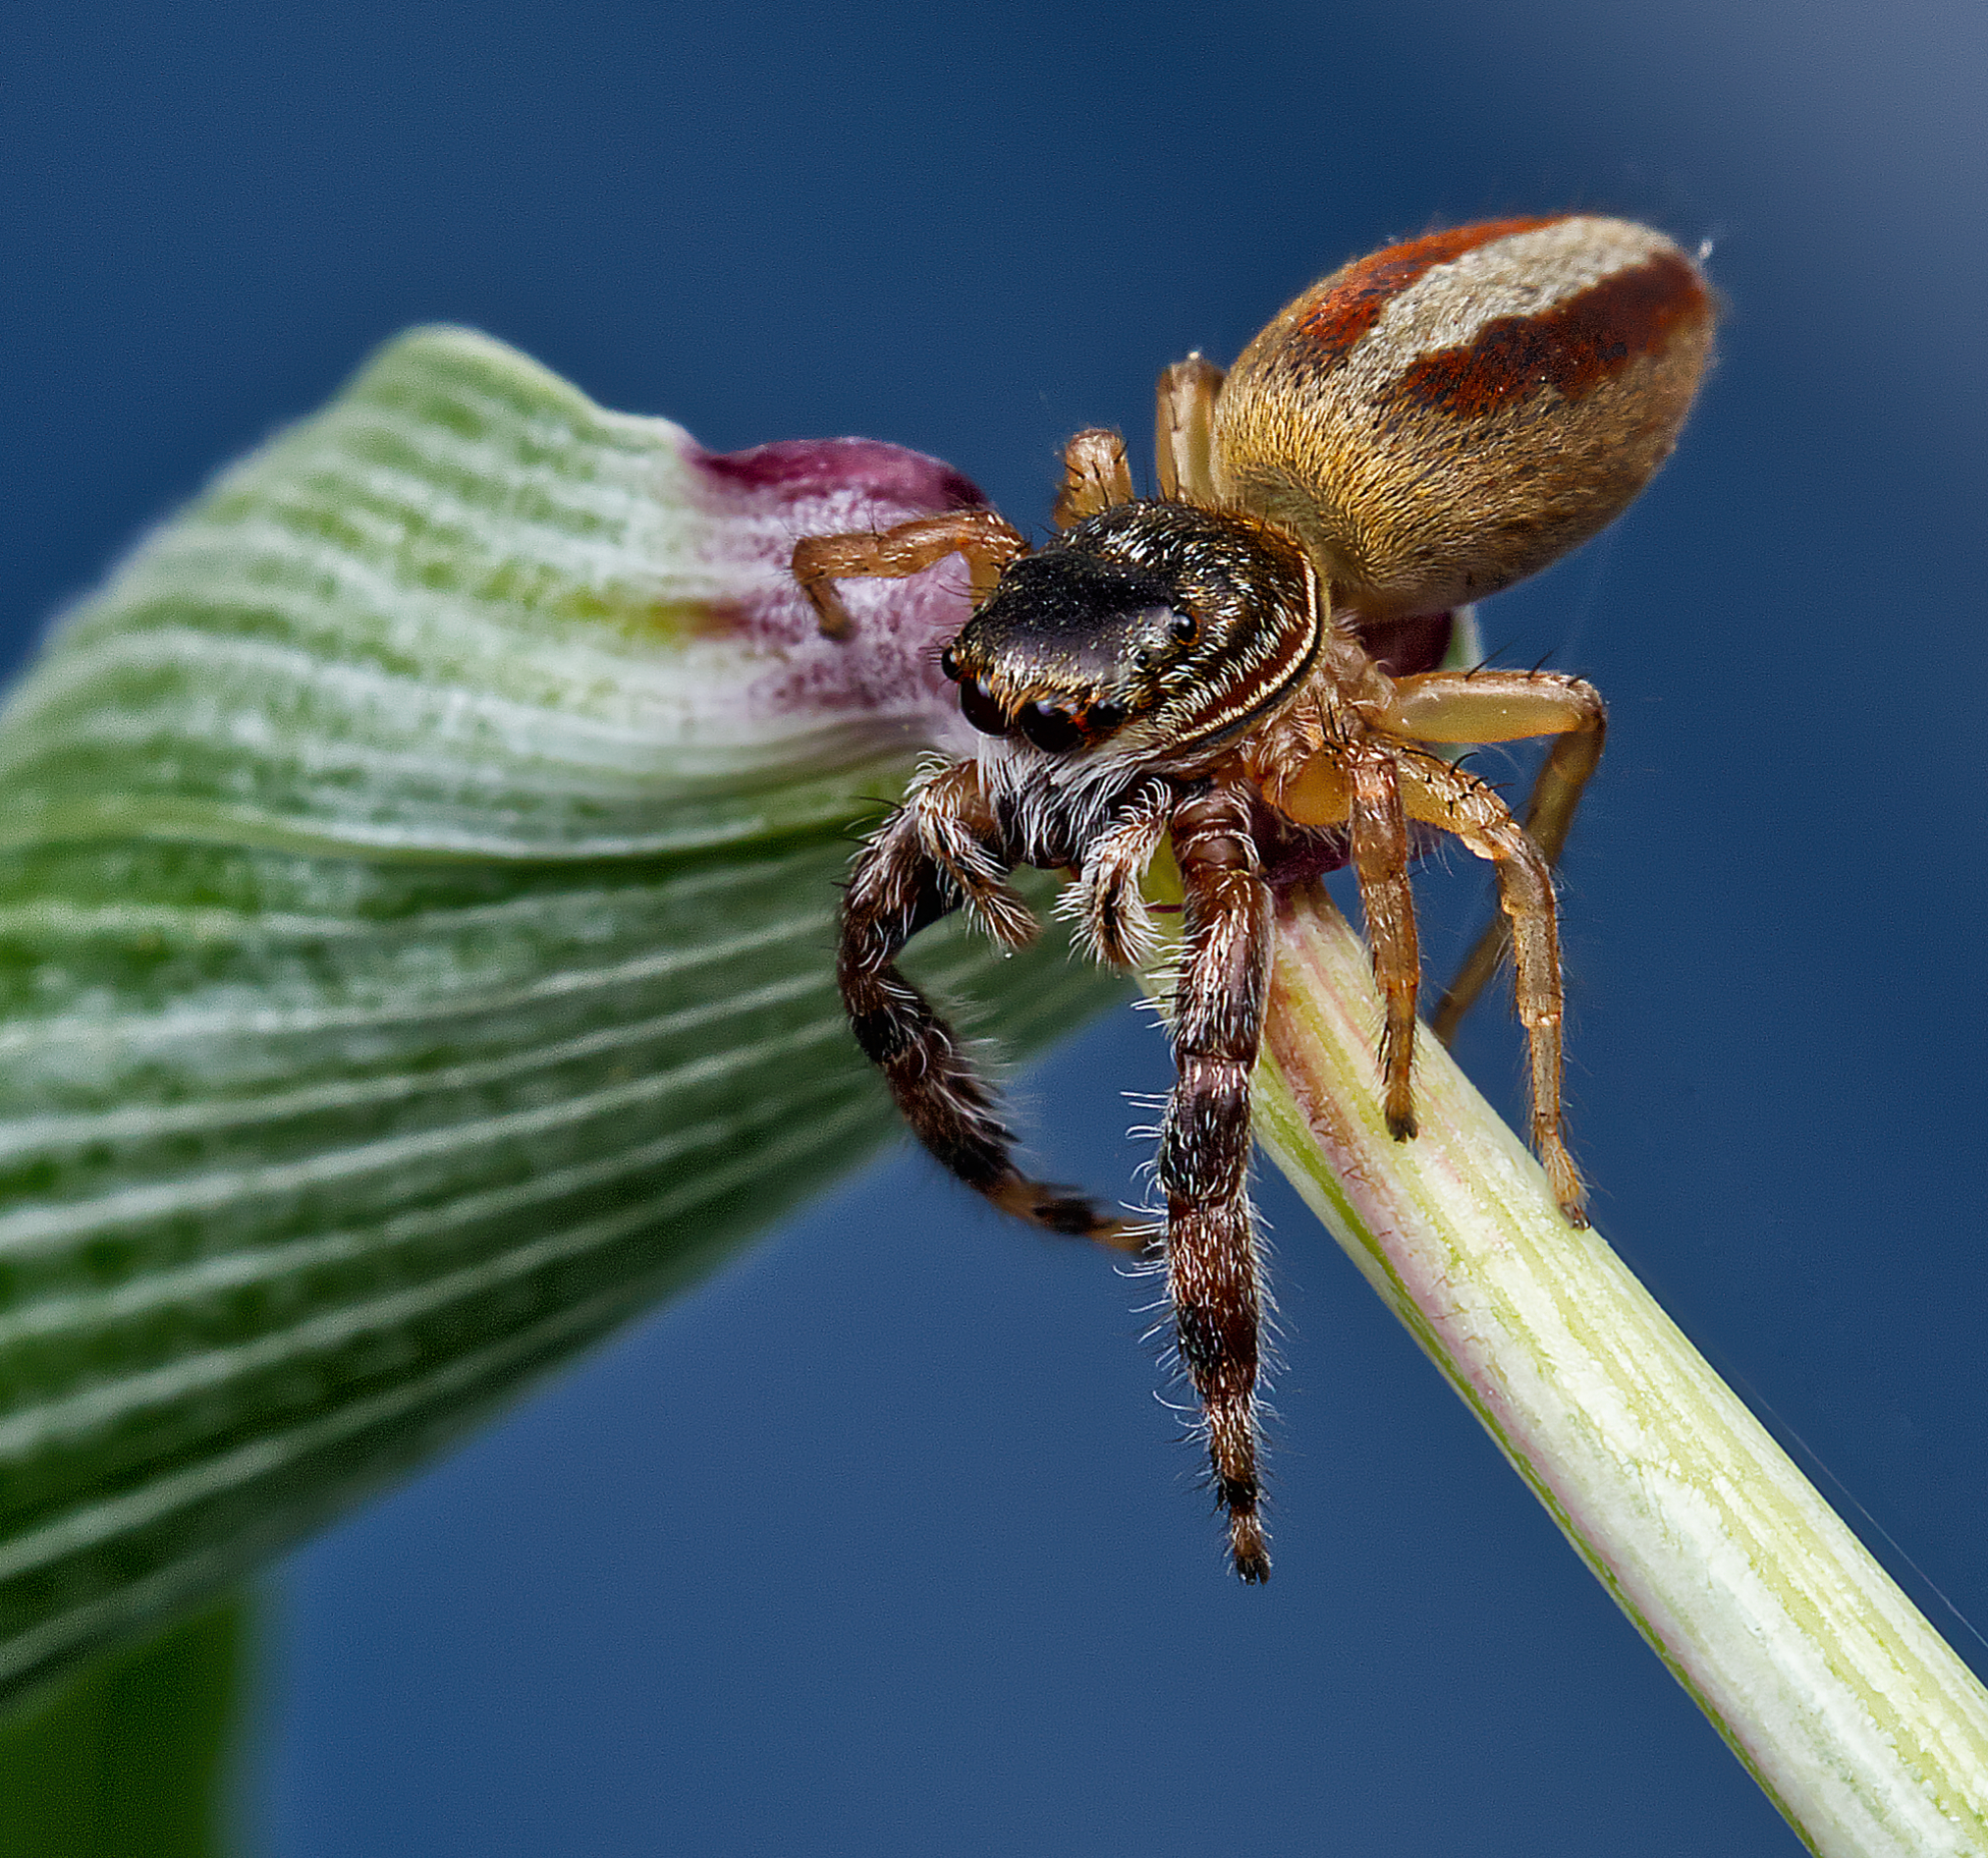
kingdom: Animalia
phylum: Arthropoda
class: Arachnida
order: Araneae
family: Salticidae
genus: Marpissa
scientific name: Marpissa formosa
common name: Short-bellied slender jumping spider
